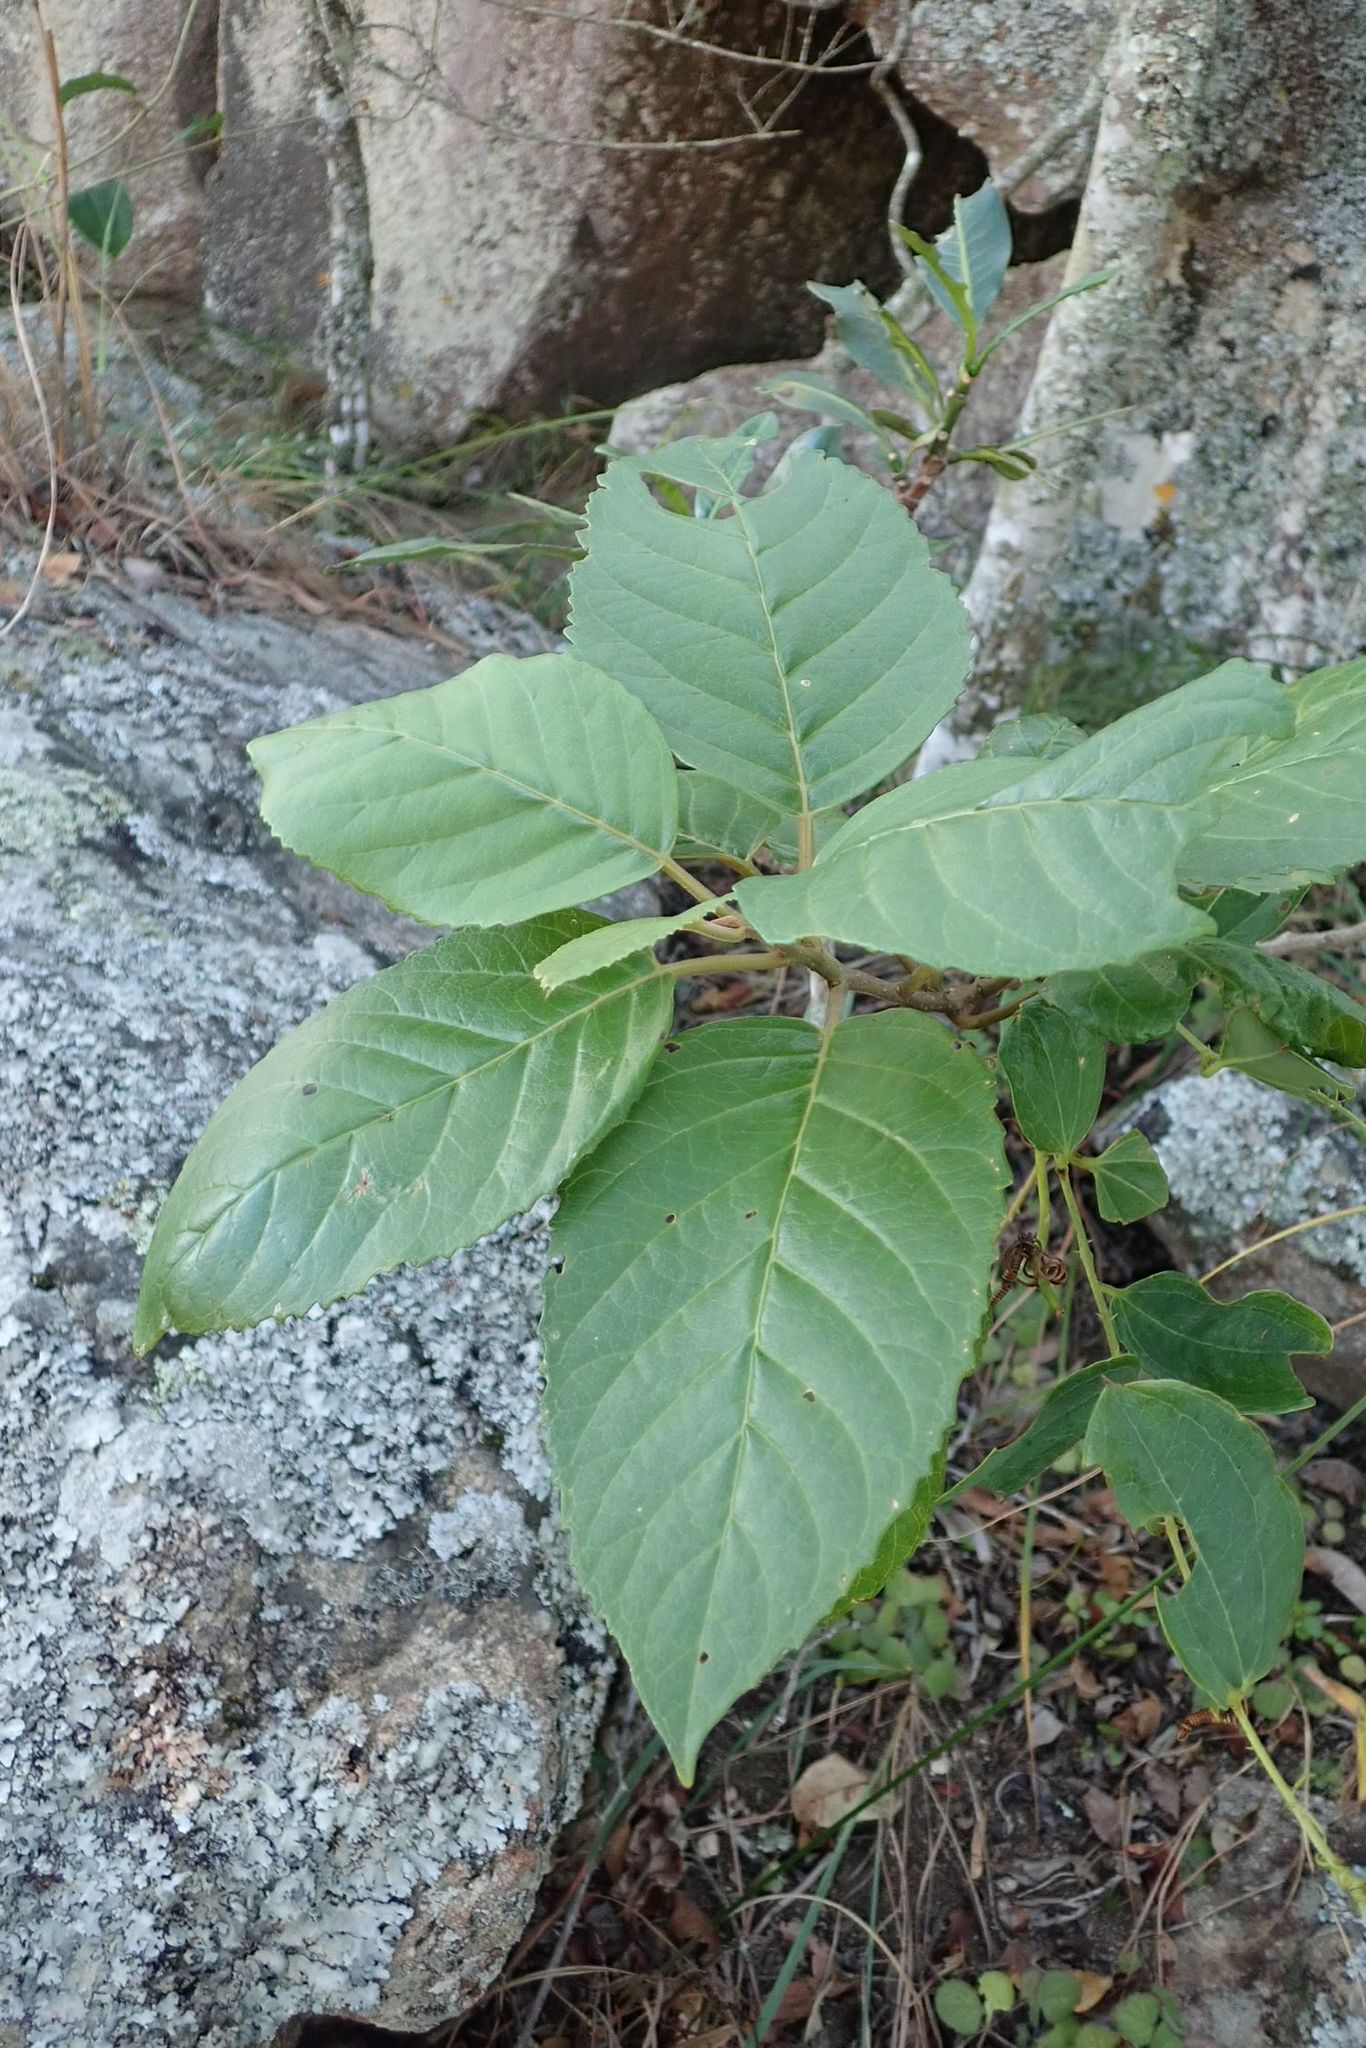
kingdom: Plantae
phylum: Tracheophyta
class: Magnoliopsida
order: Ericales
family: Primulaceae
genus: Maesa
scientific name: Maesa lanceolata
